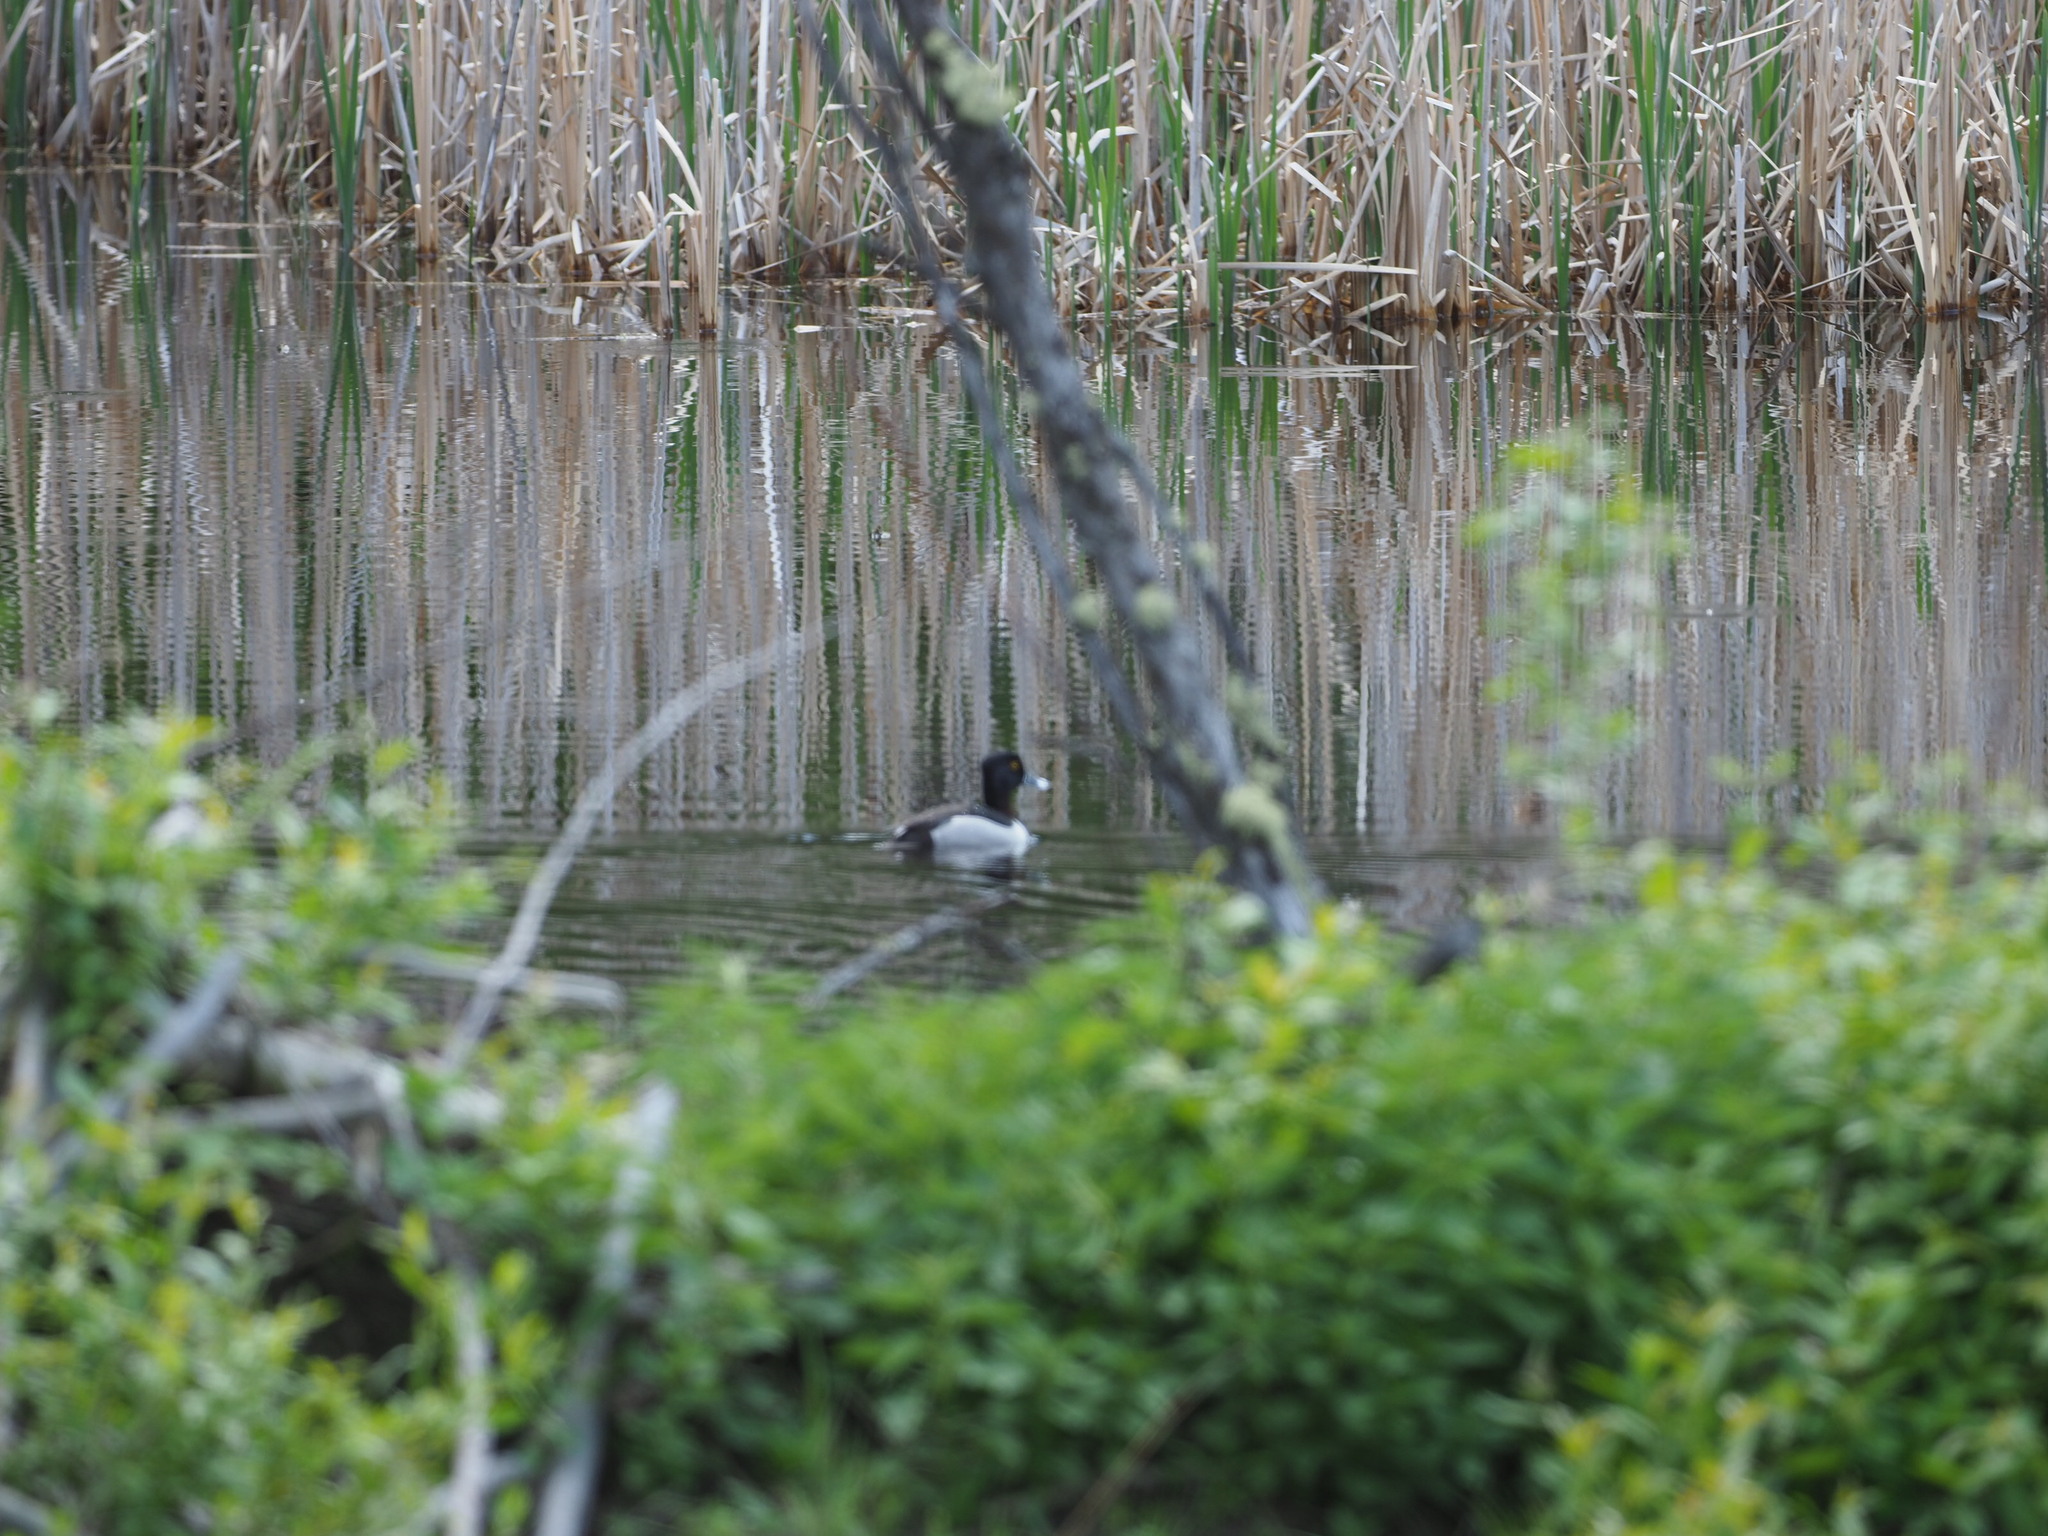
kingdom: Animalia
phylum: Chordata
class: Aves
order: Anseriformes
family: Anatidae
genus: Aythya
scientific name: Aythya collaris
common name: Ring-necked duck
